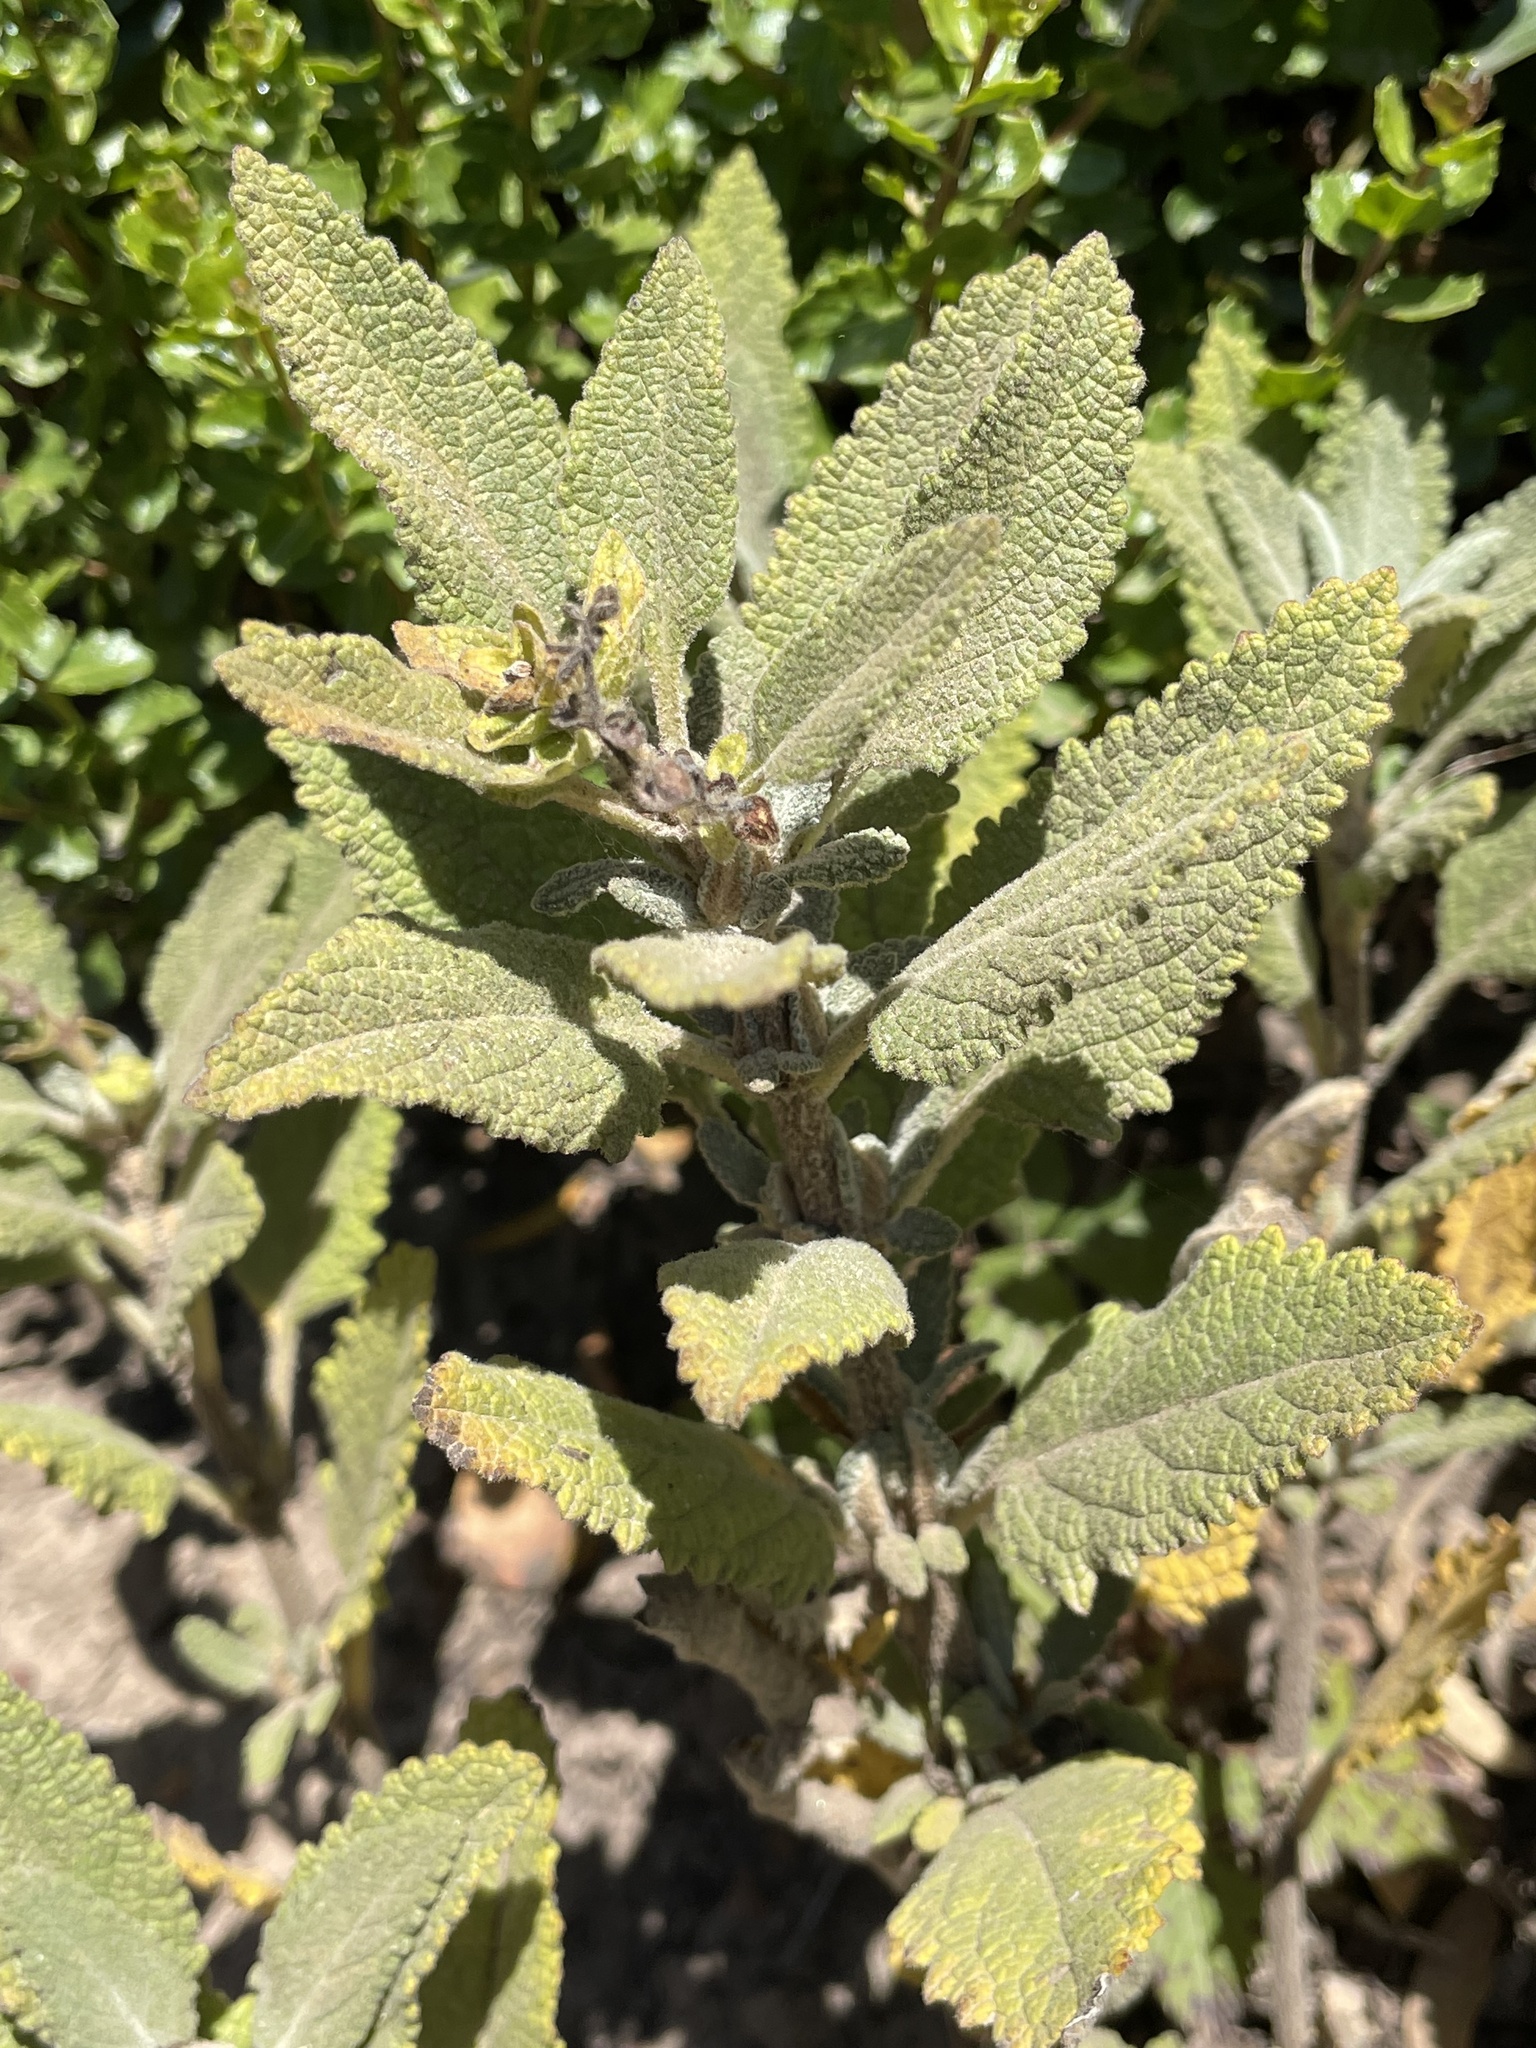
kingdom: Plantae
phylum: Tracheophyta
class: Magnoliopsida
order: Lamiales
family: Lamiaceae
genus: Lepechinia
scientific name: Lepechinia calycina
